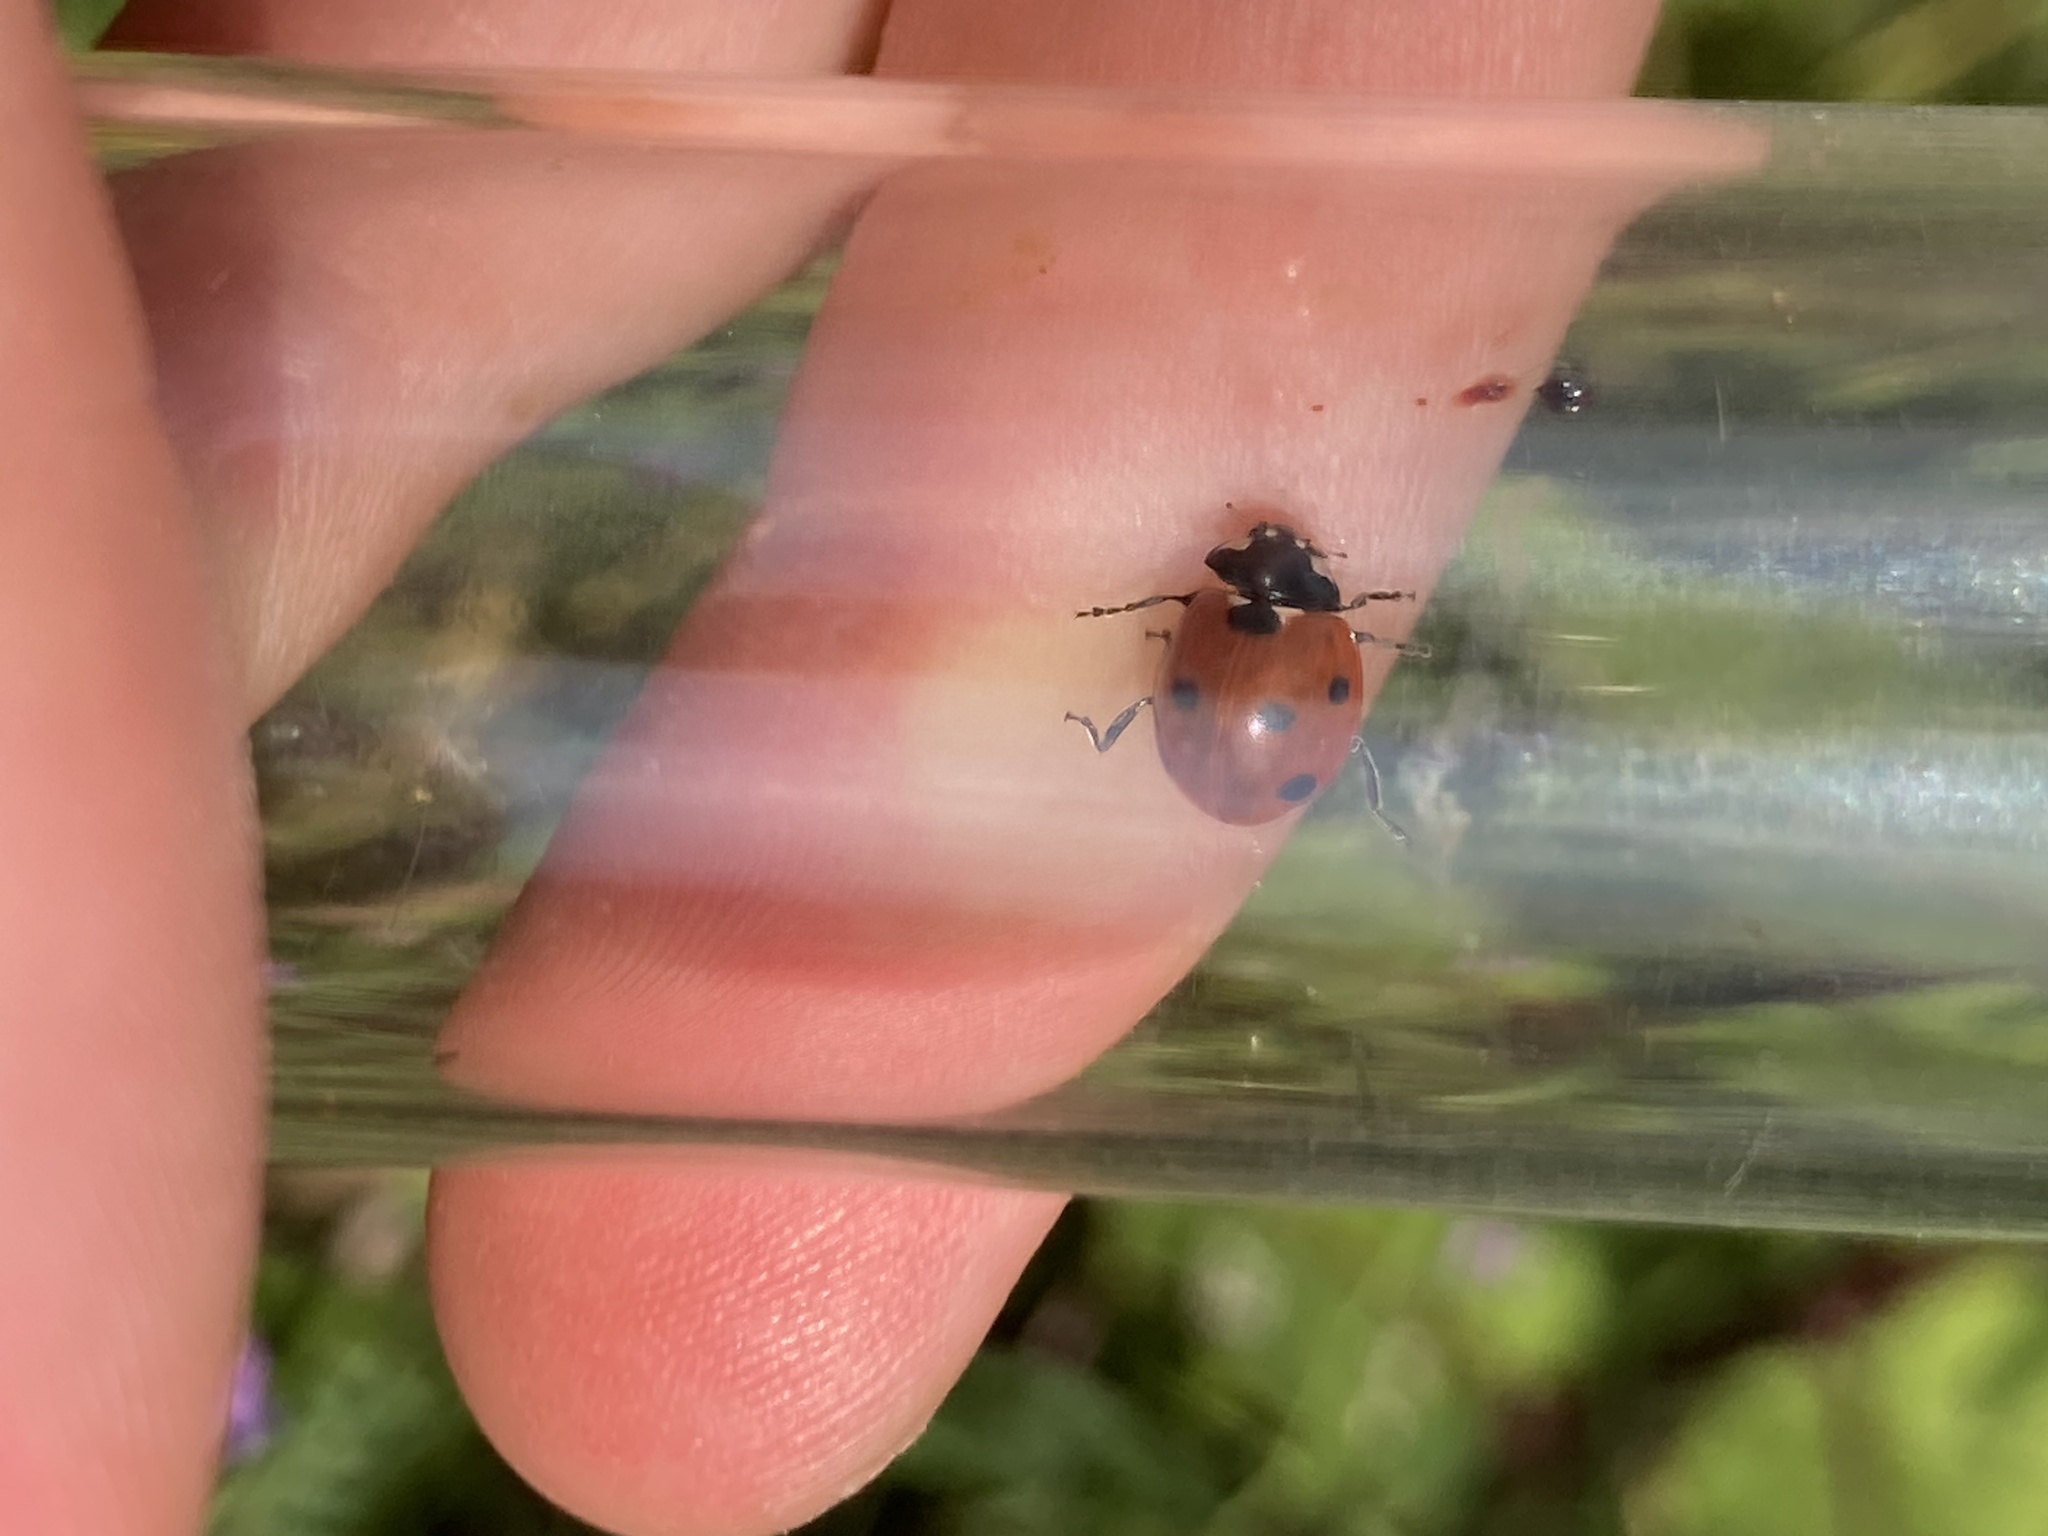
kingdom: Animalia
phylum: Arthropoda
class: Insecta
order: Coleoptera
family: Coccinellidae
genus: Coccinella
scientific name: Coccinella septempunctata
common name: Sevenspotted lady beetle
